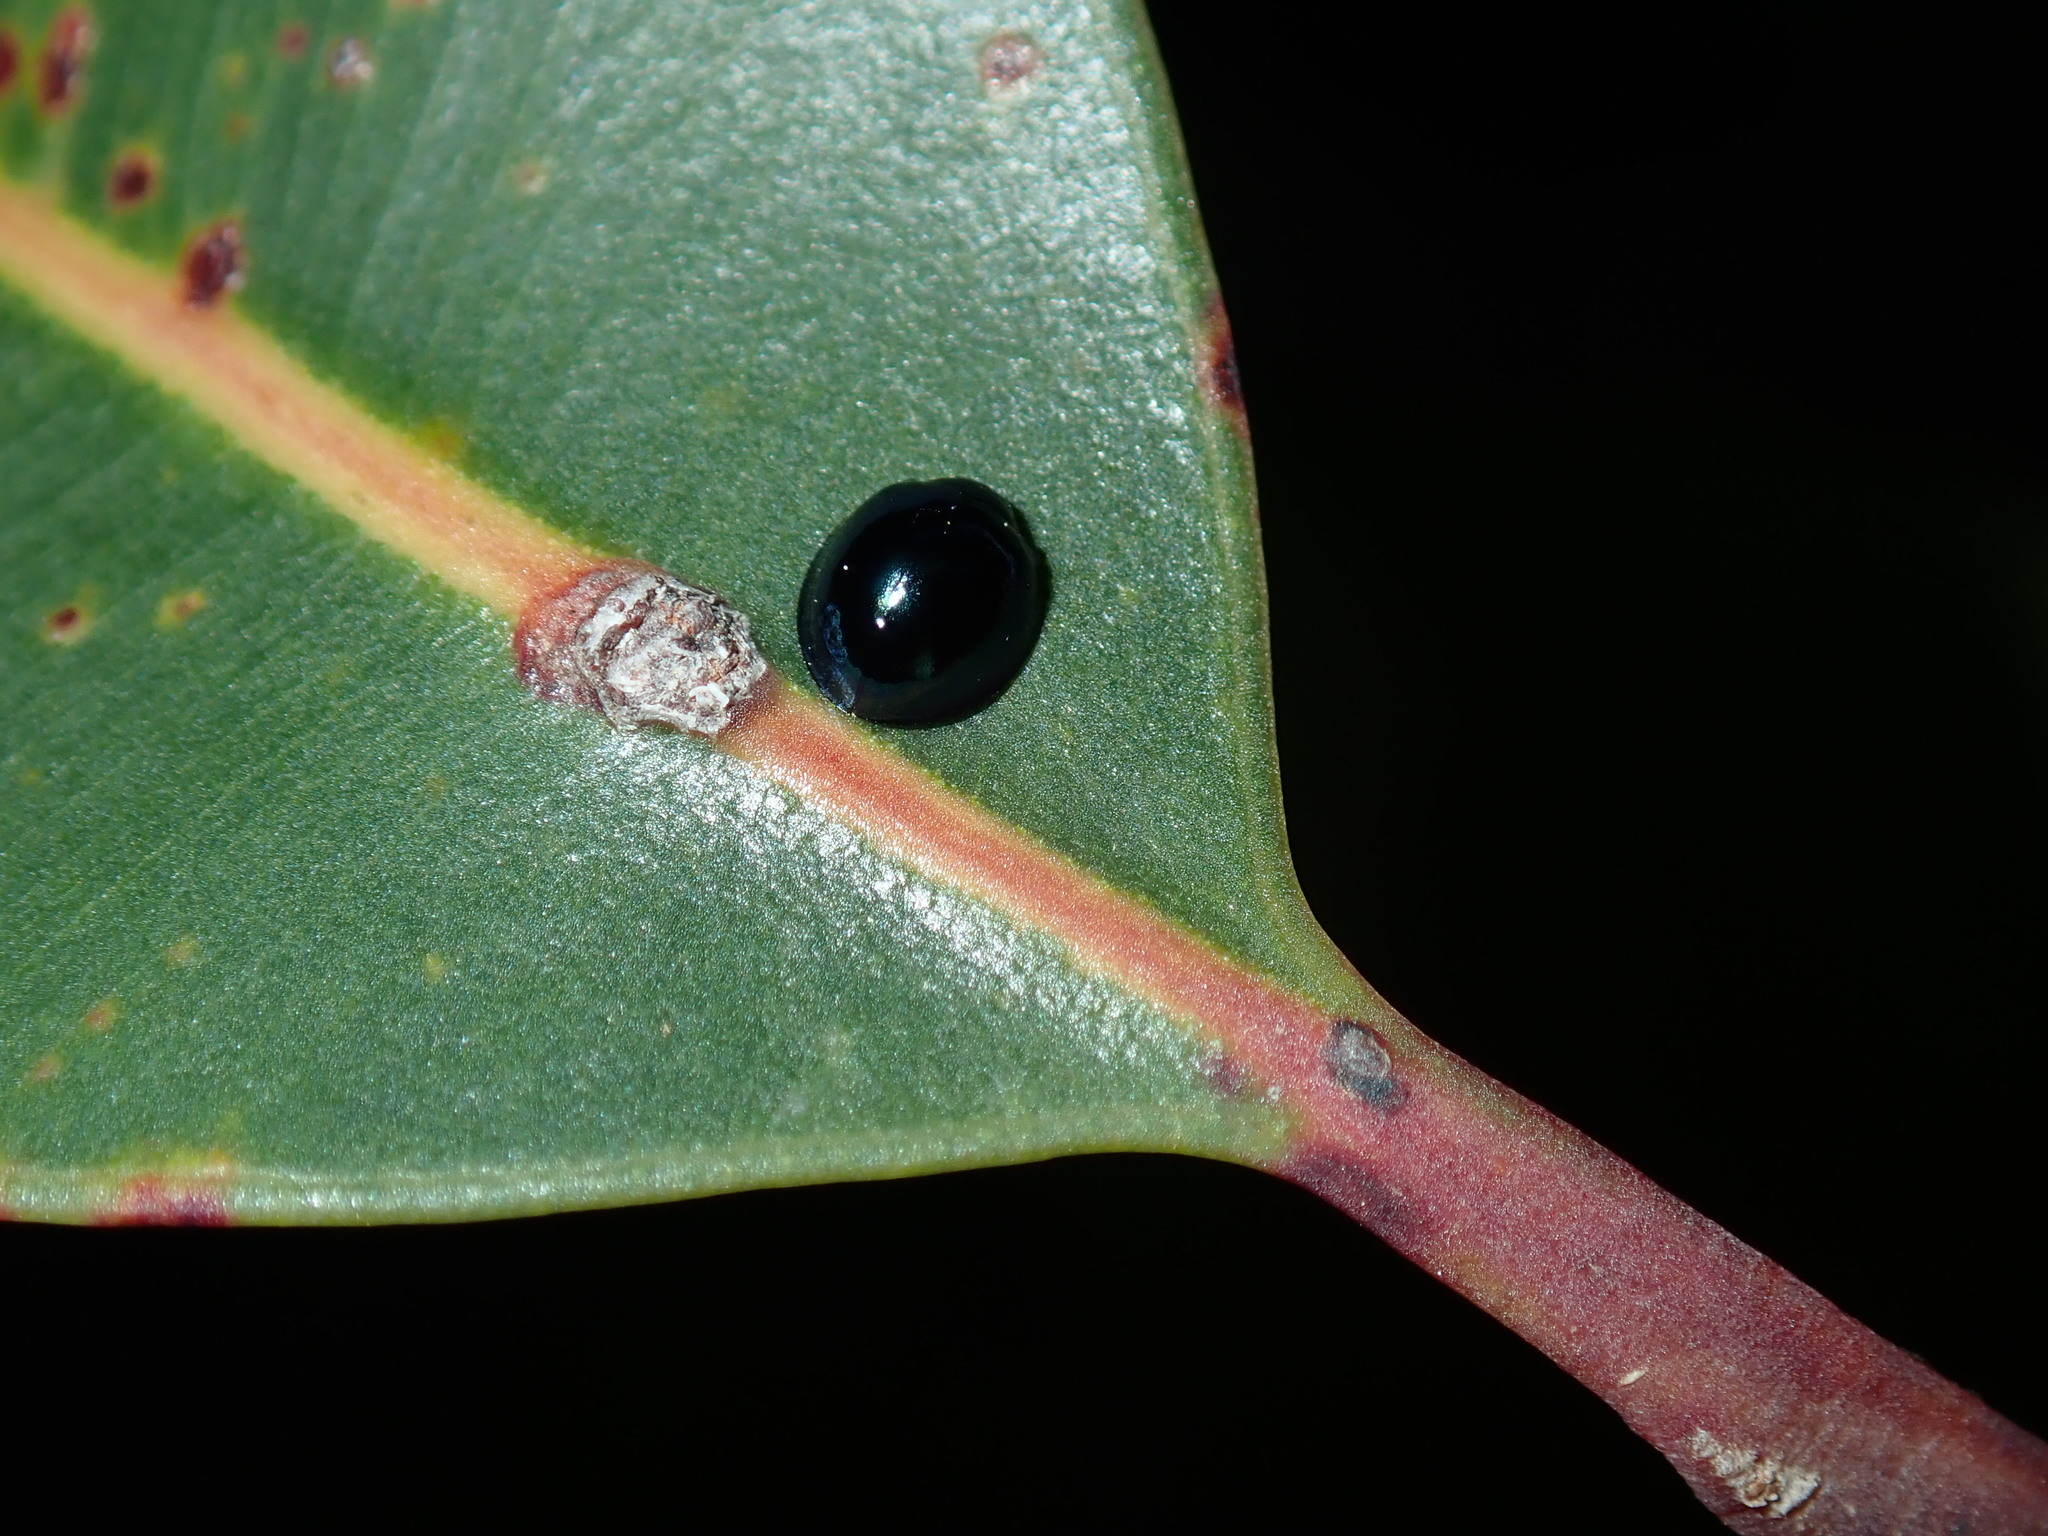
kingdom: Animalia
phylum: Arthropoda
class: Insecta
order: Coleoptera
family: Coccinellidae
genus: Halmus
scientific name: Halmus chalybeus
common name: Steel blue ladybird beetle
